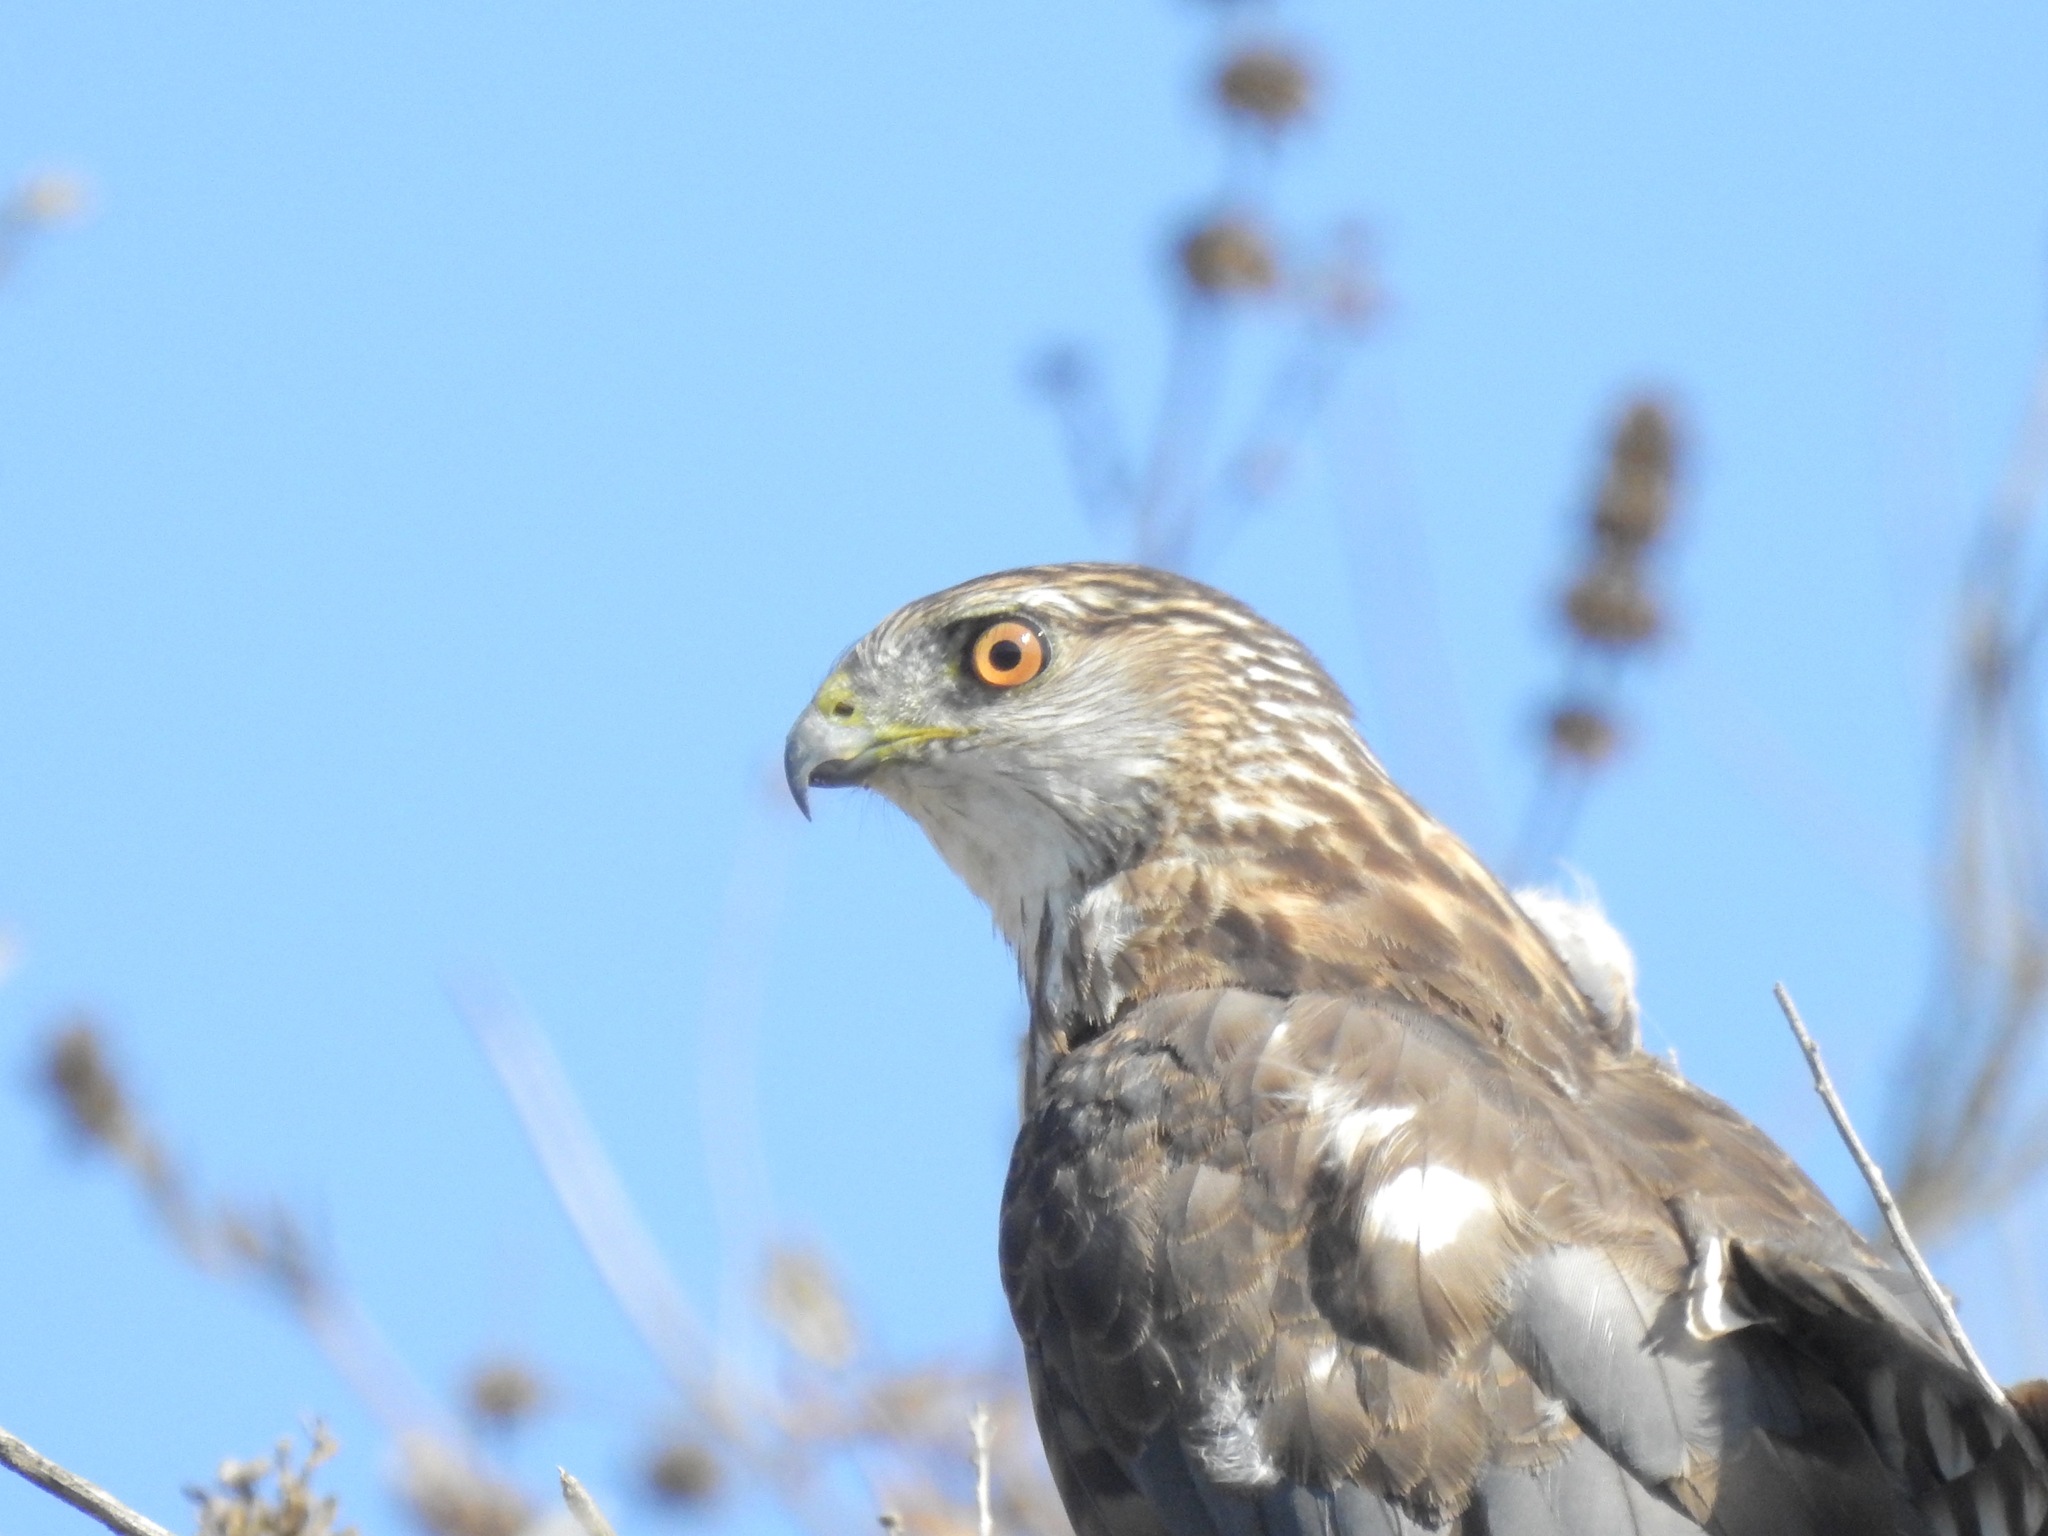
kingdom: Animalia
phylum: Chordata
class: Aves
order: Accipitriformes
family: Accipitridae
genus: Accipiter
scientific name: Accipiter cooperii
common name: Cooper's hawk
